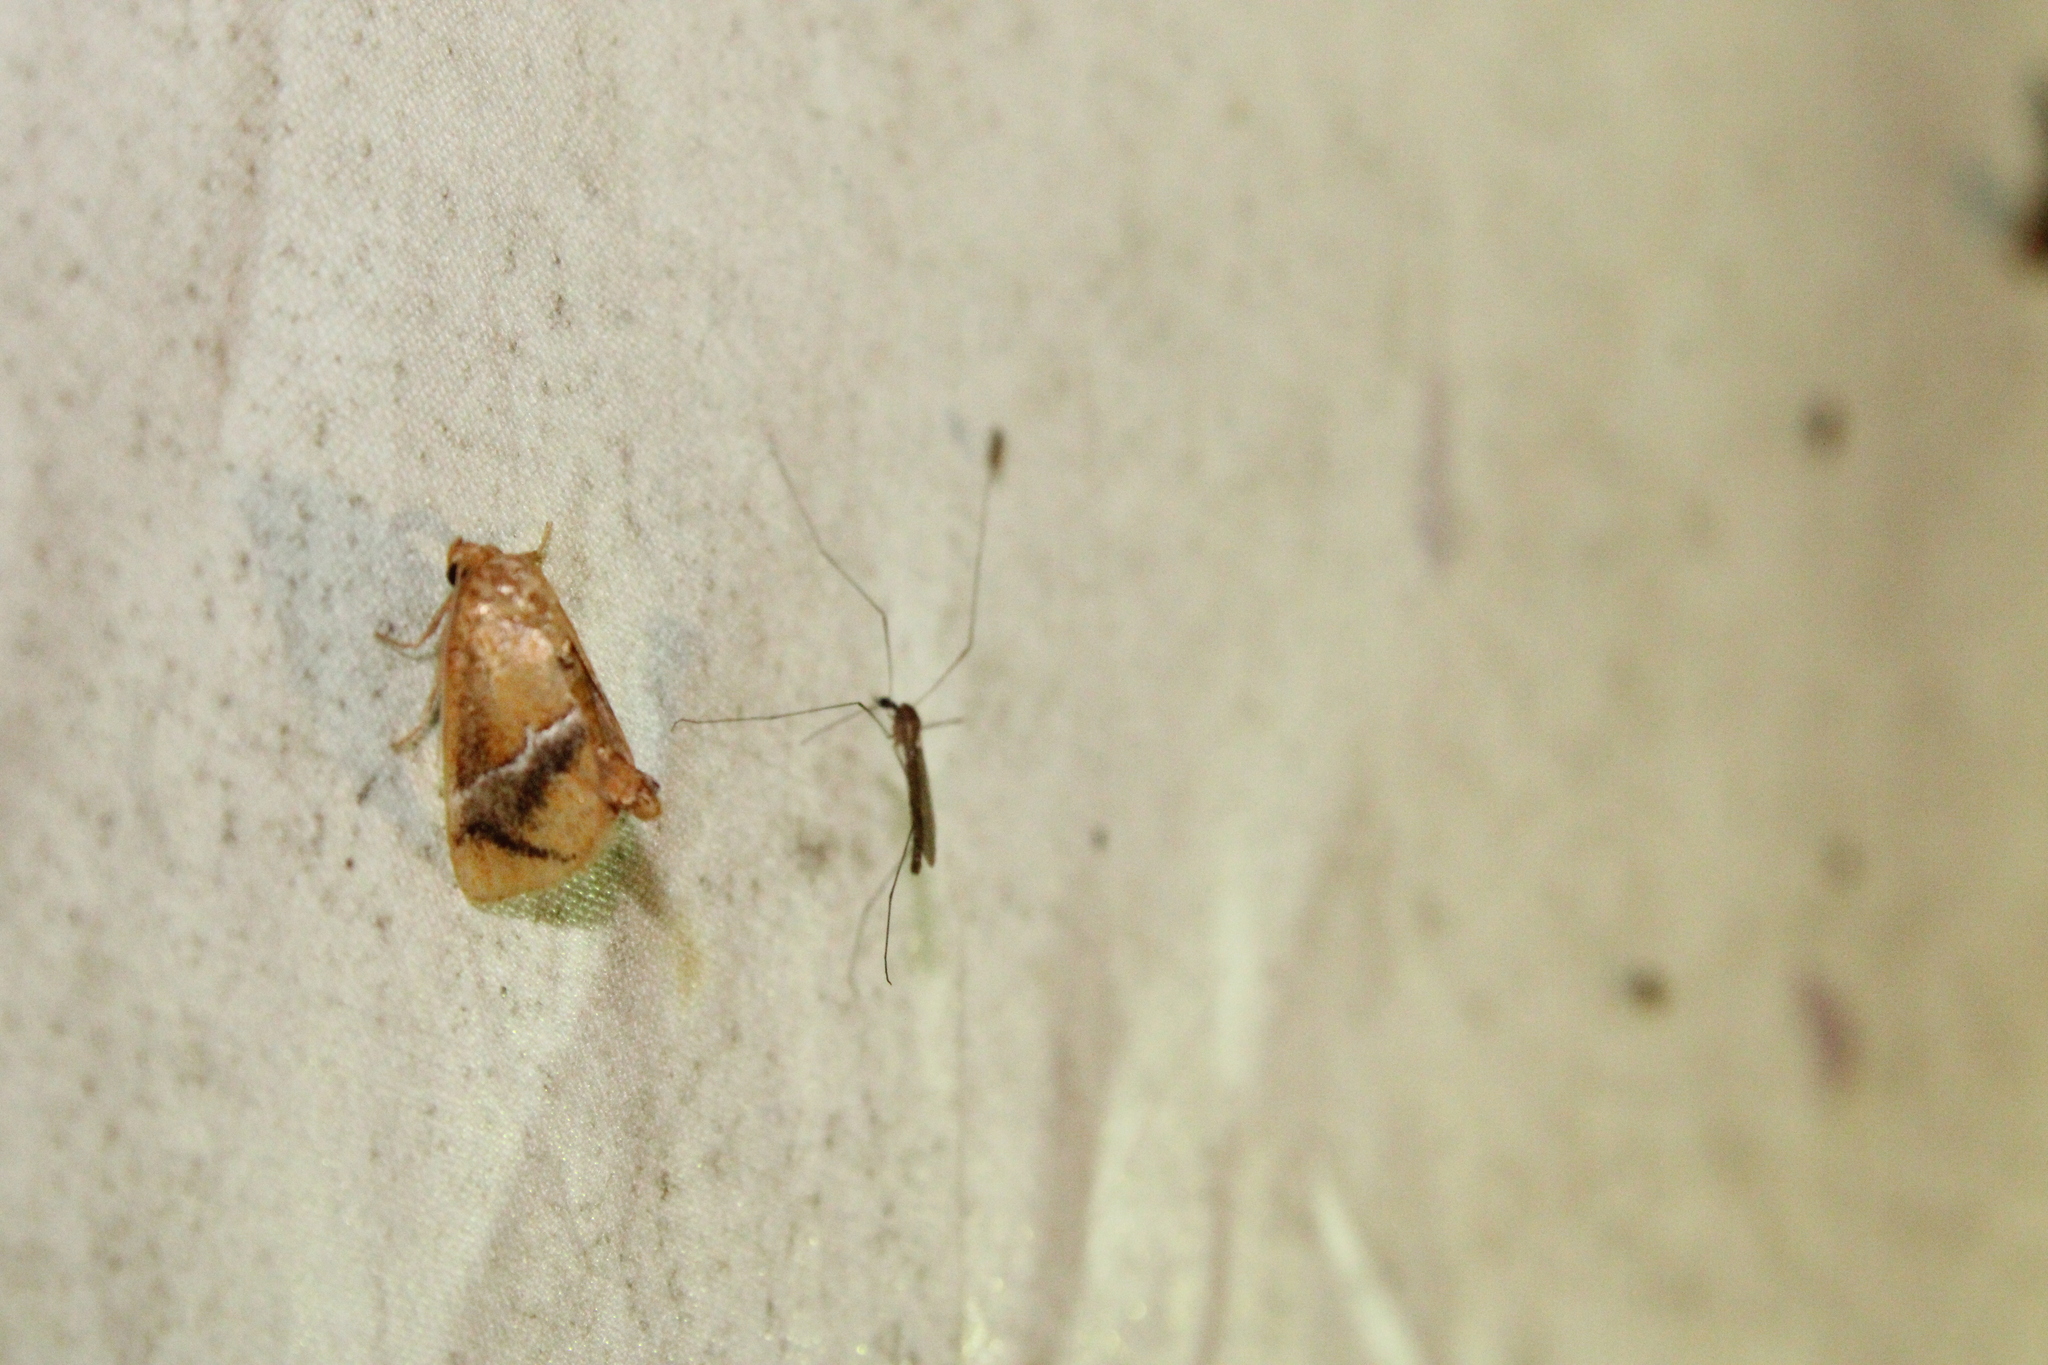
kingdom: Animalia
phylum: Arthropoda
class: Insecta
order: Lepidoptera
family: Limacodidae
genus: Lithacodes
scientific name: Lithacodes fasciola
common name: Yellow-shouldered slug moth
